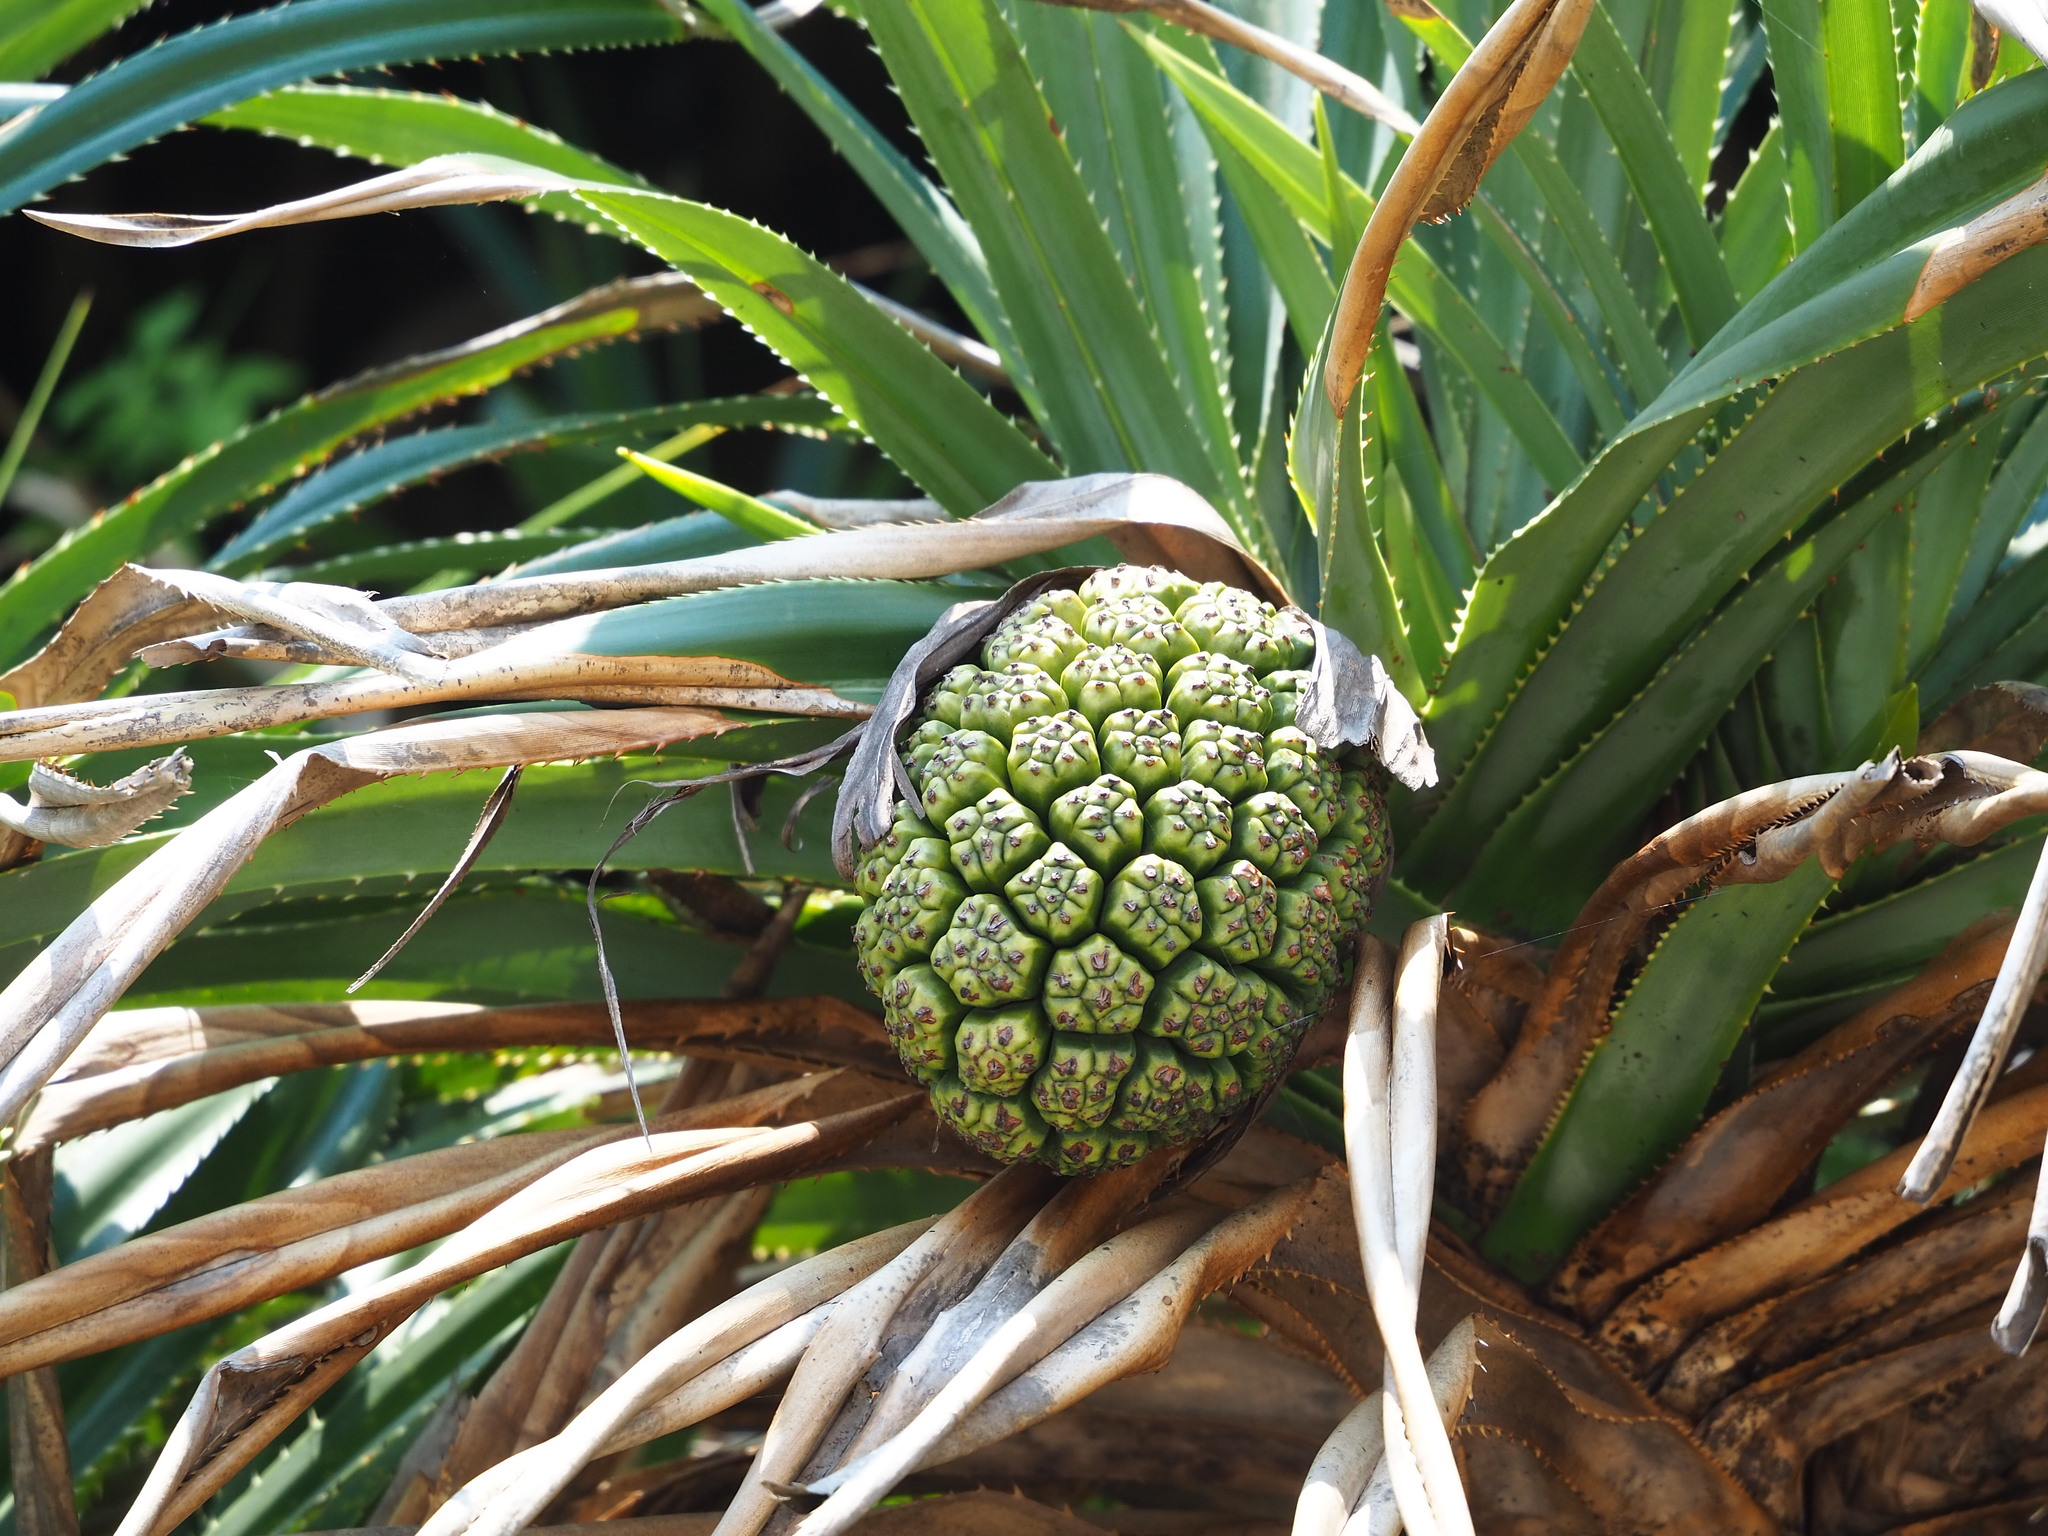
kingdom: Plantae
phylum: Tracheophyta
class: Liliopsida
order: Pandanales
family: Pandanaceae
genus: Pandanus
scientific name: Pandanus odorifer
